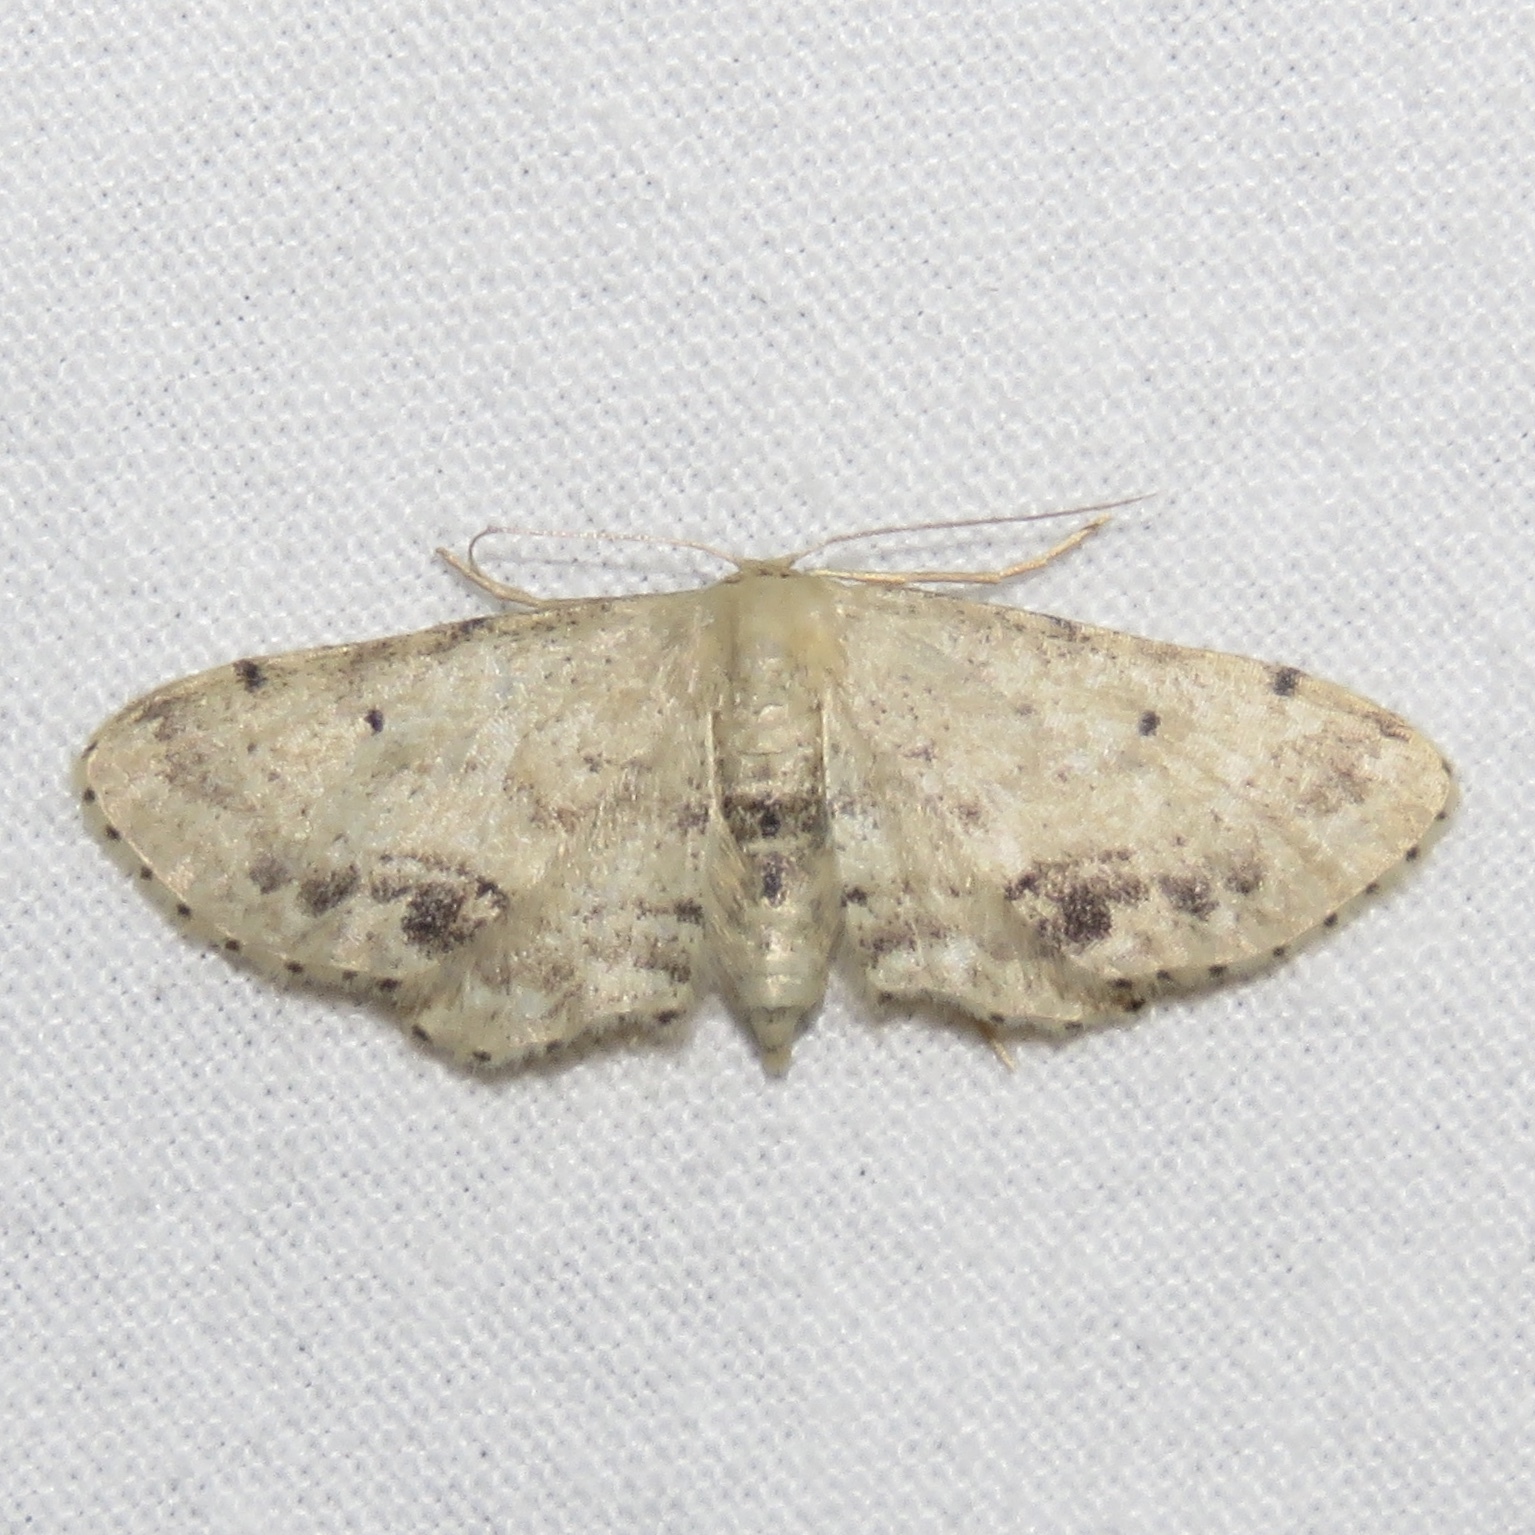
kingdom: Animalia
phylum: Arthropoda
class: Insecta
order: Lepidoptera
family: Geometridae
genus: Idaea
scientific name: Idaea dimidiata
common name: Single-dotted wave
